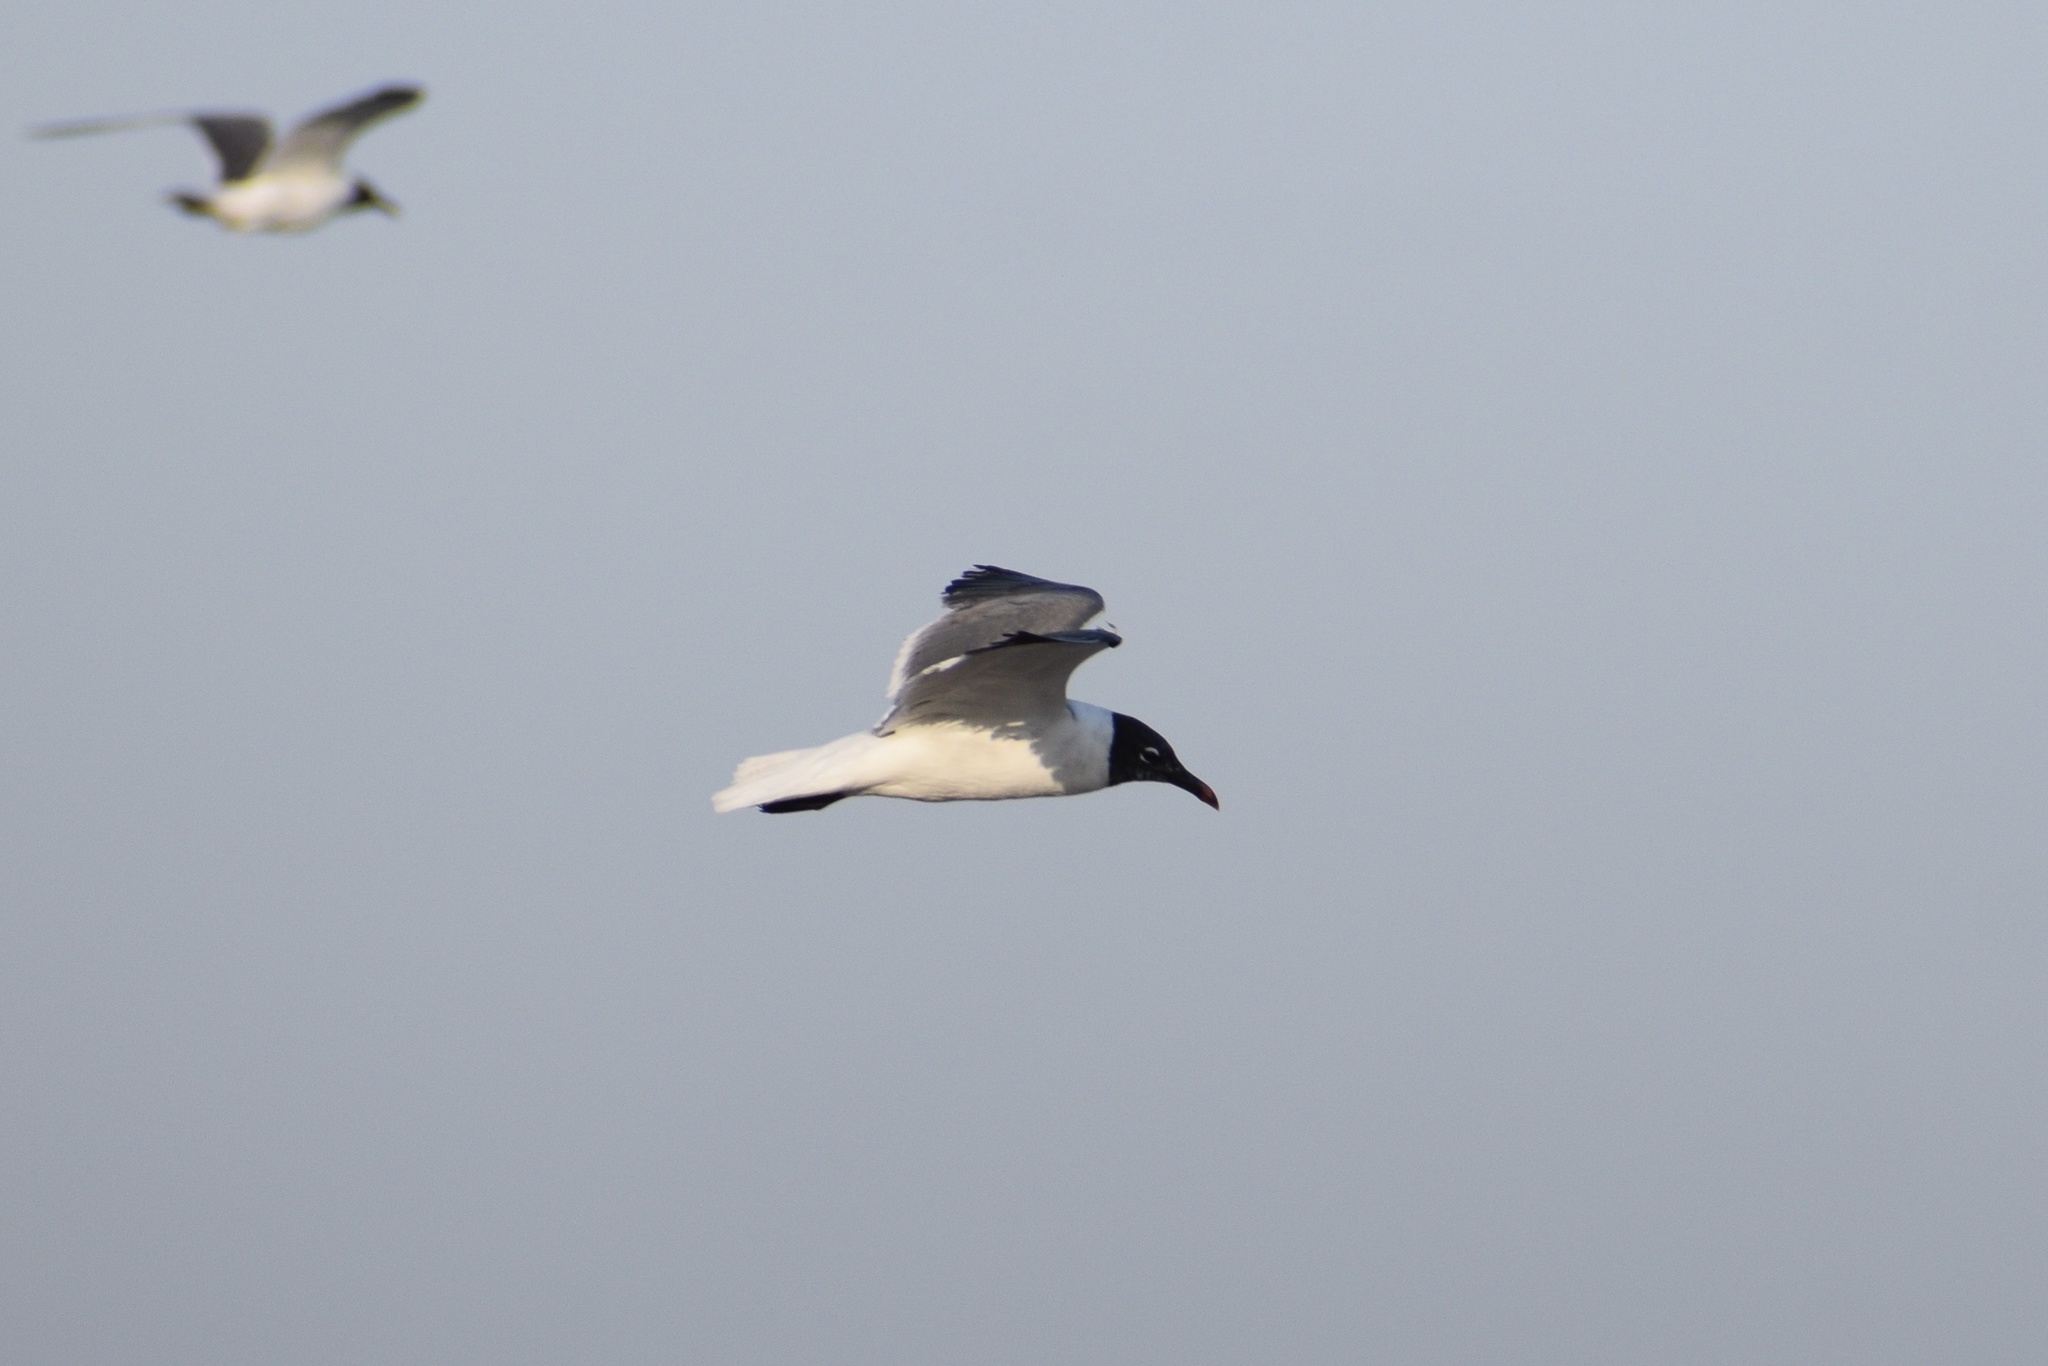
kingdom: Animalia
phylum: Chordata
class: Aves
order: Charadriiformes
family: Laridae
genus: Leucophaeus
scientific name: Leucophaeus atricilla
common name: Laughing gull
